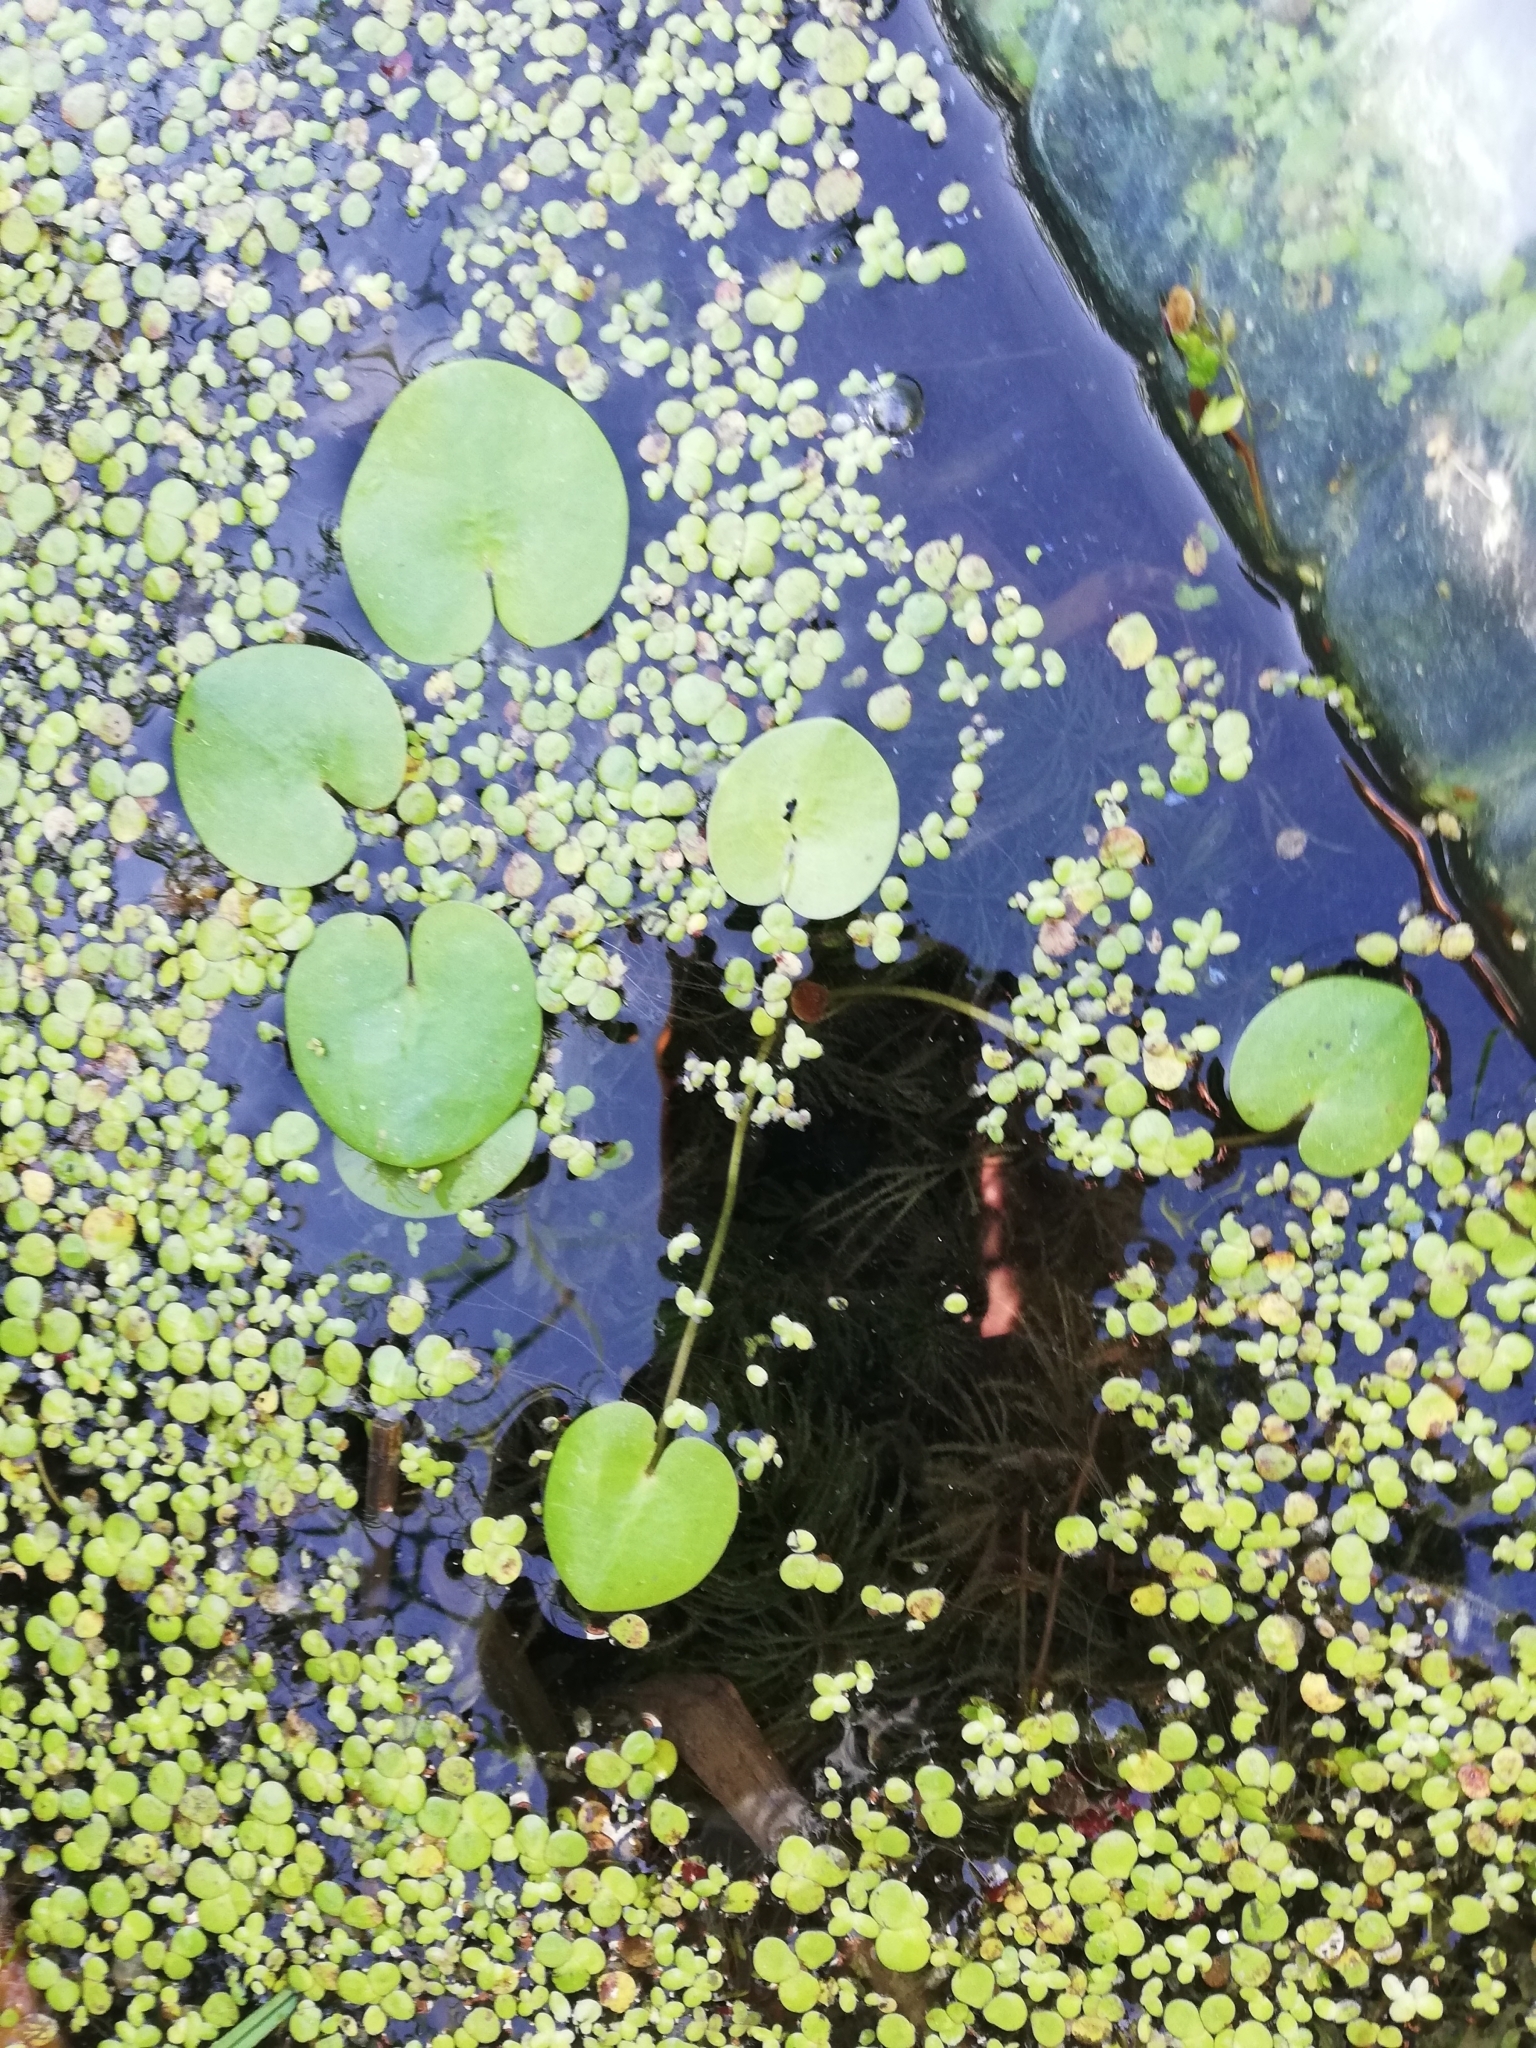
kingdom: Plantae
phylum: Tracheophyta
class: Liliopsida
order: Alismatales
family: Hydrocharitaceae
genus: Hydrocharis
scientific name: Hydrocharis morsus-ranae
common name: Frogbit
